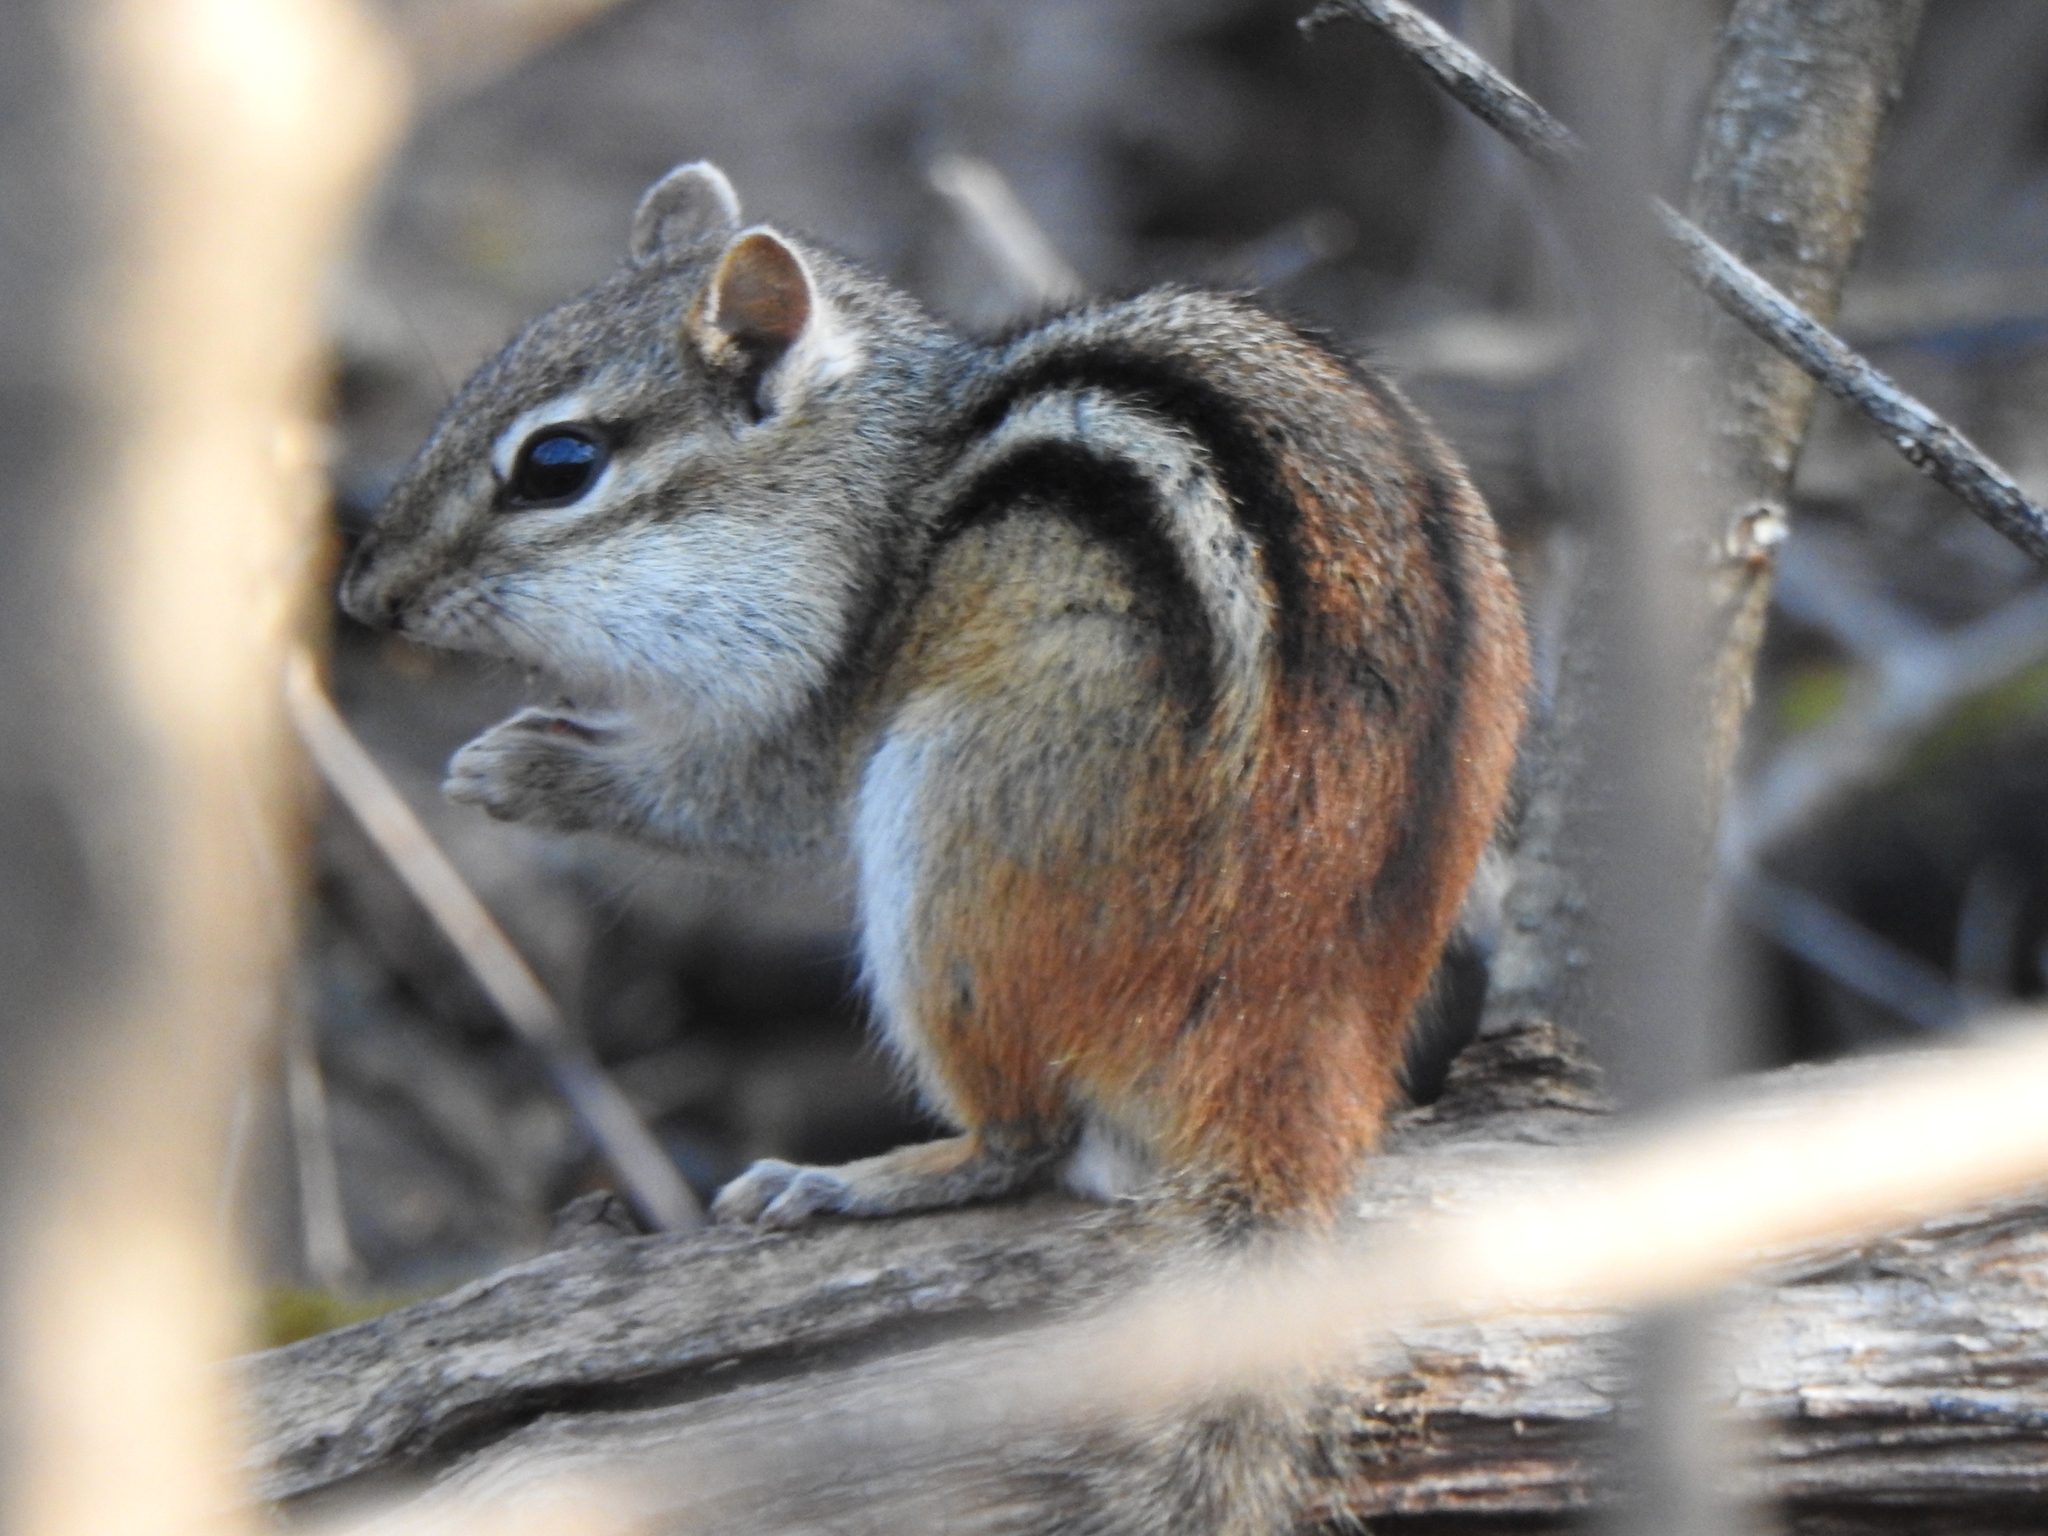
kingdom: Animalia
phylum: Chordata
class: Mammalia
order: Rodentia
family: Sciuridae
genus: Tamias
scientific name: Tamias striatus
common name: Eastern chipmunk
